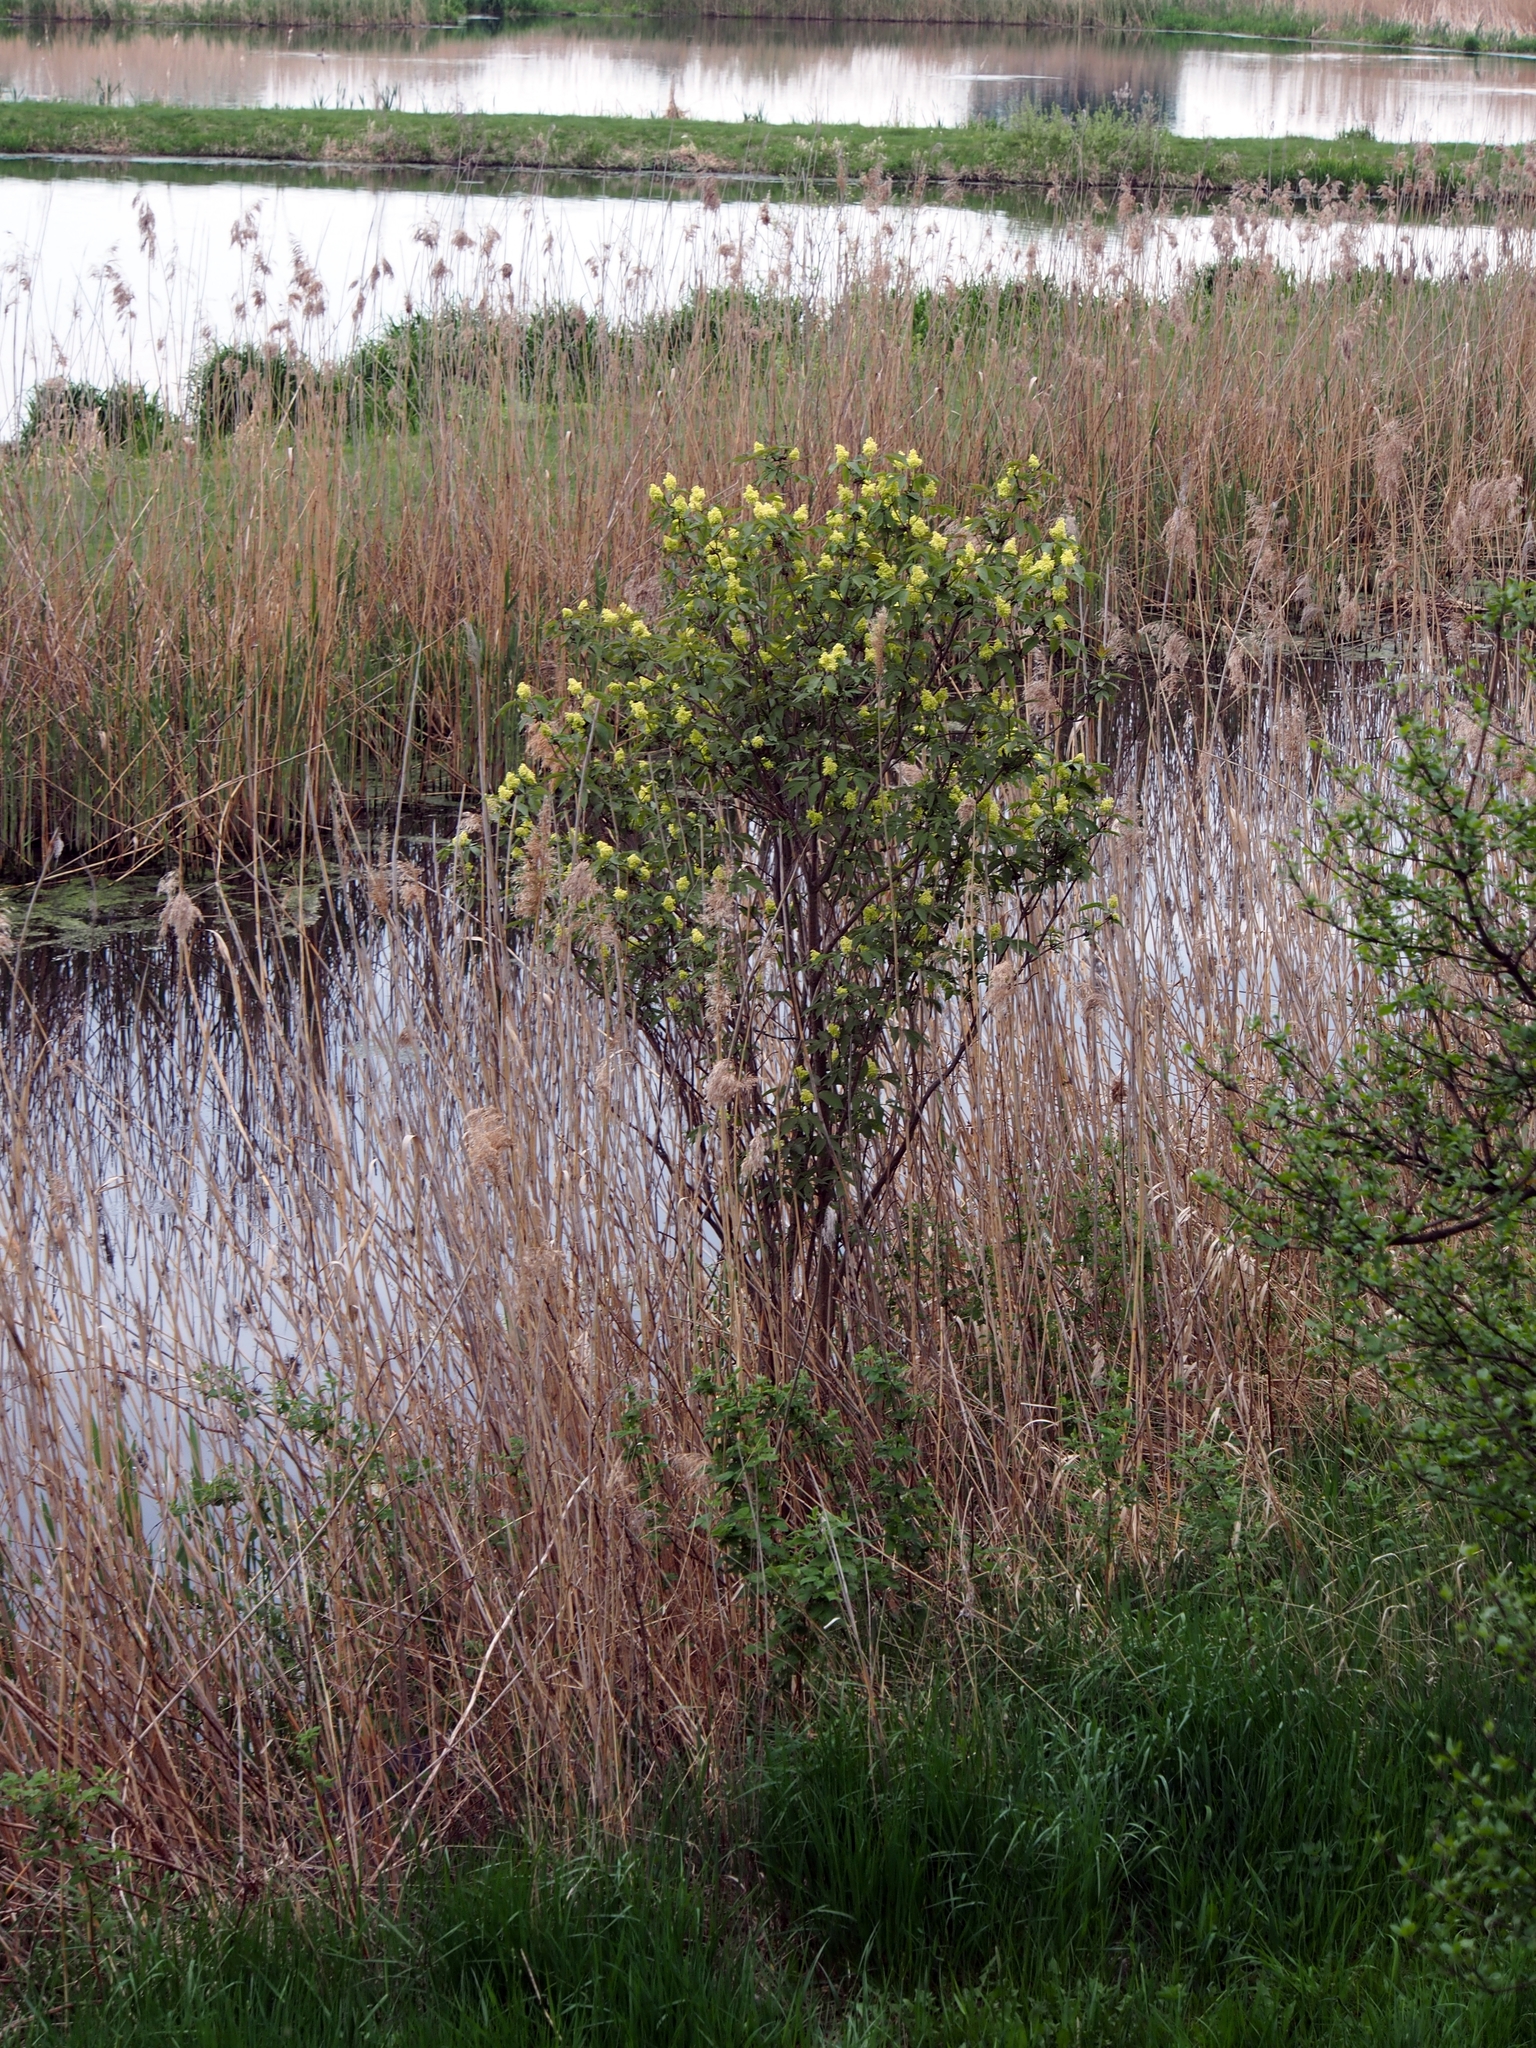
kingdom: Plantae
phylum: Tracheophyta
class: Magnoliopsida
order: Dipsacales
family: Viburnaceae
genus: Sambucus
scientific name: Sambucus racemosa
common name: Red-berried elder
